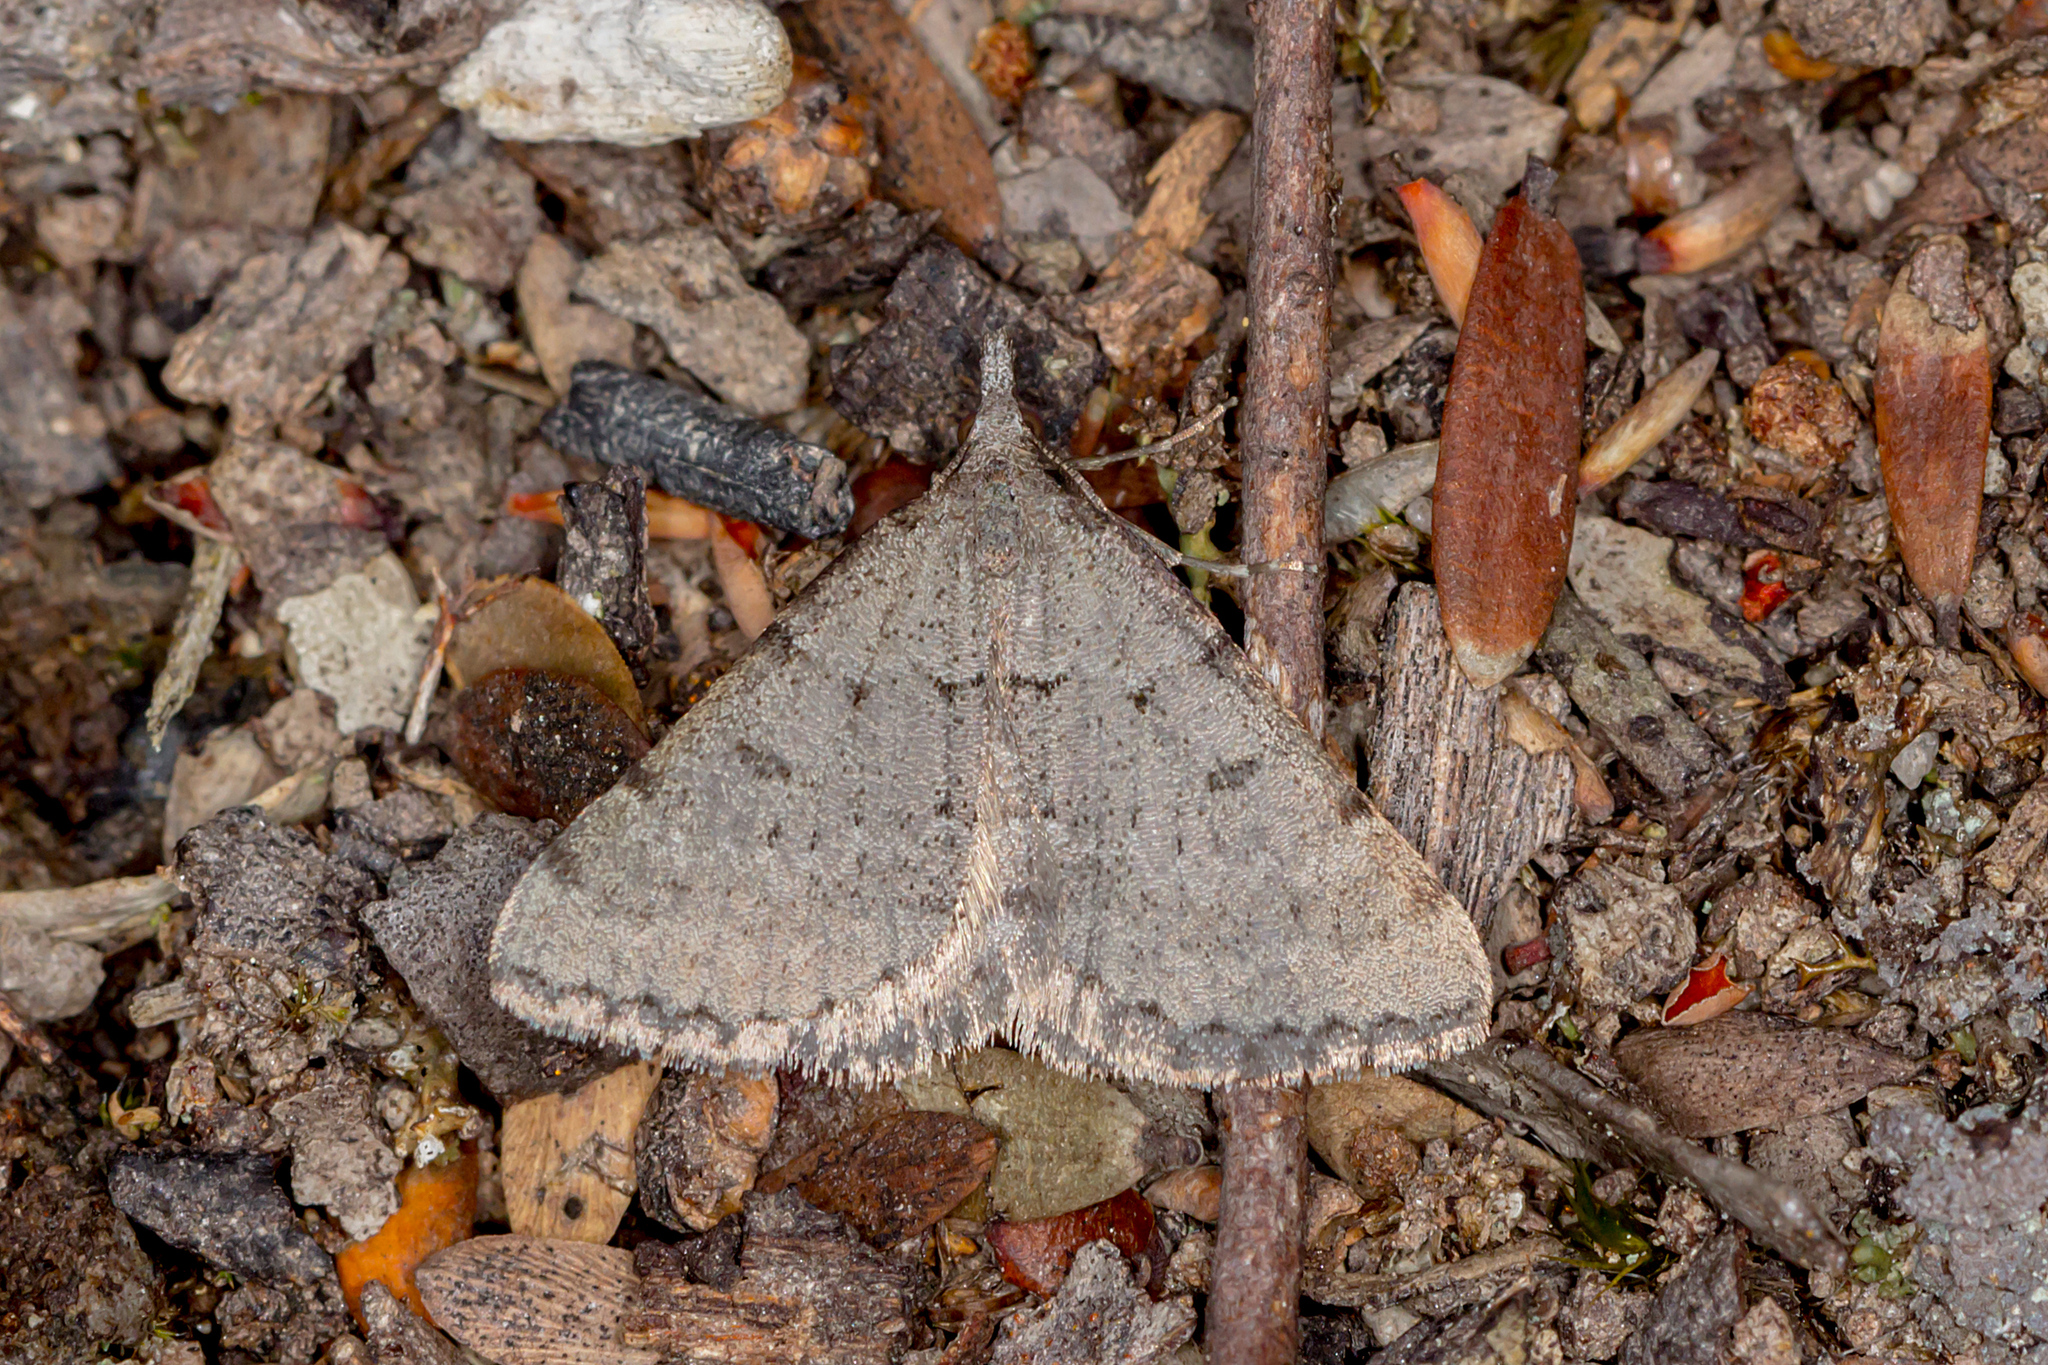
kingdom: Animalia
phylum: Arthropoda
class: Insecta
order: Lepidoptera
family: Geometridae
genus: Dichromodes
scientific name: Dichromodes indicataria
